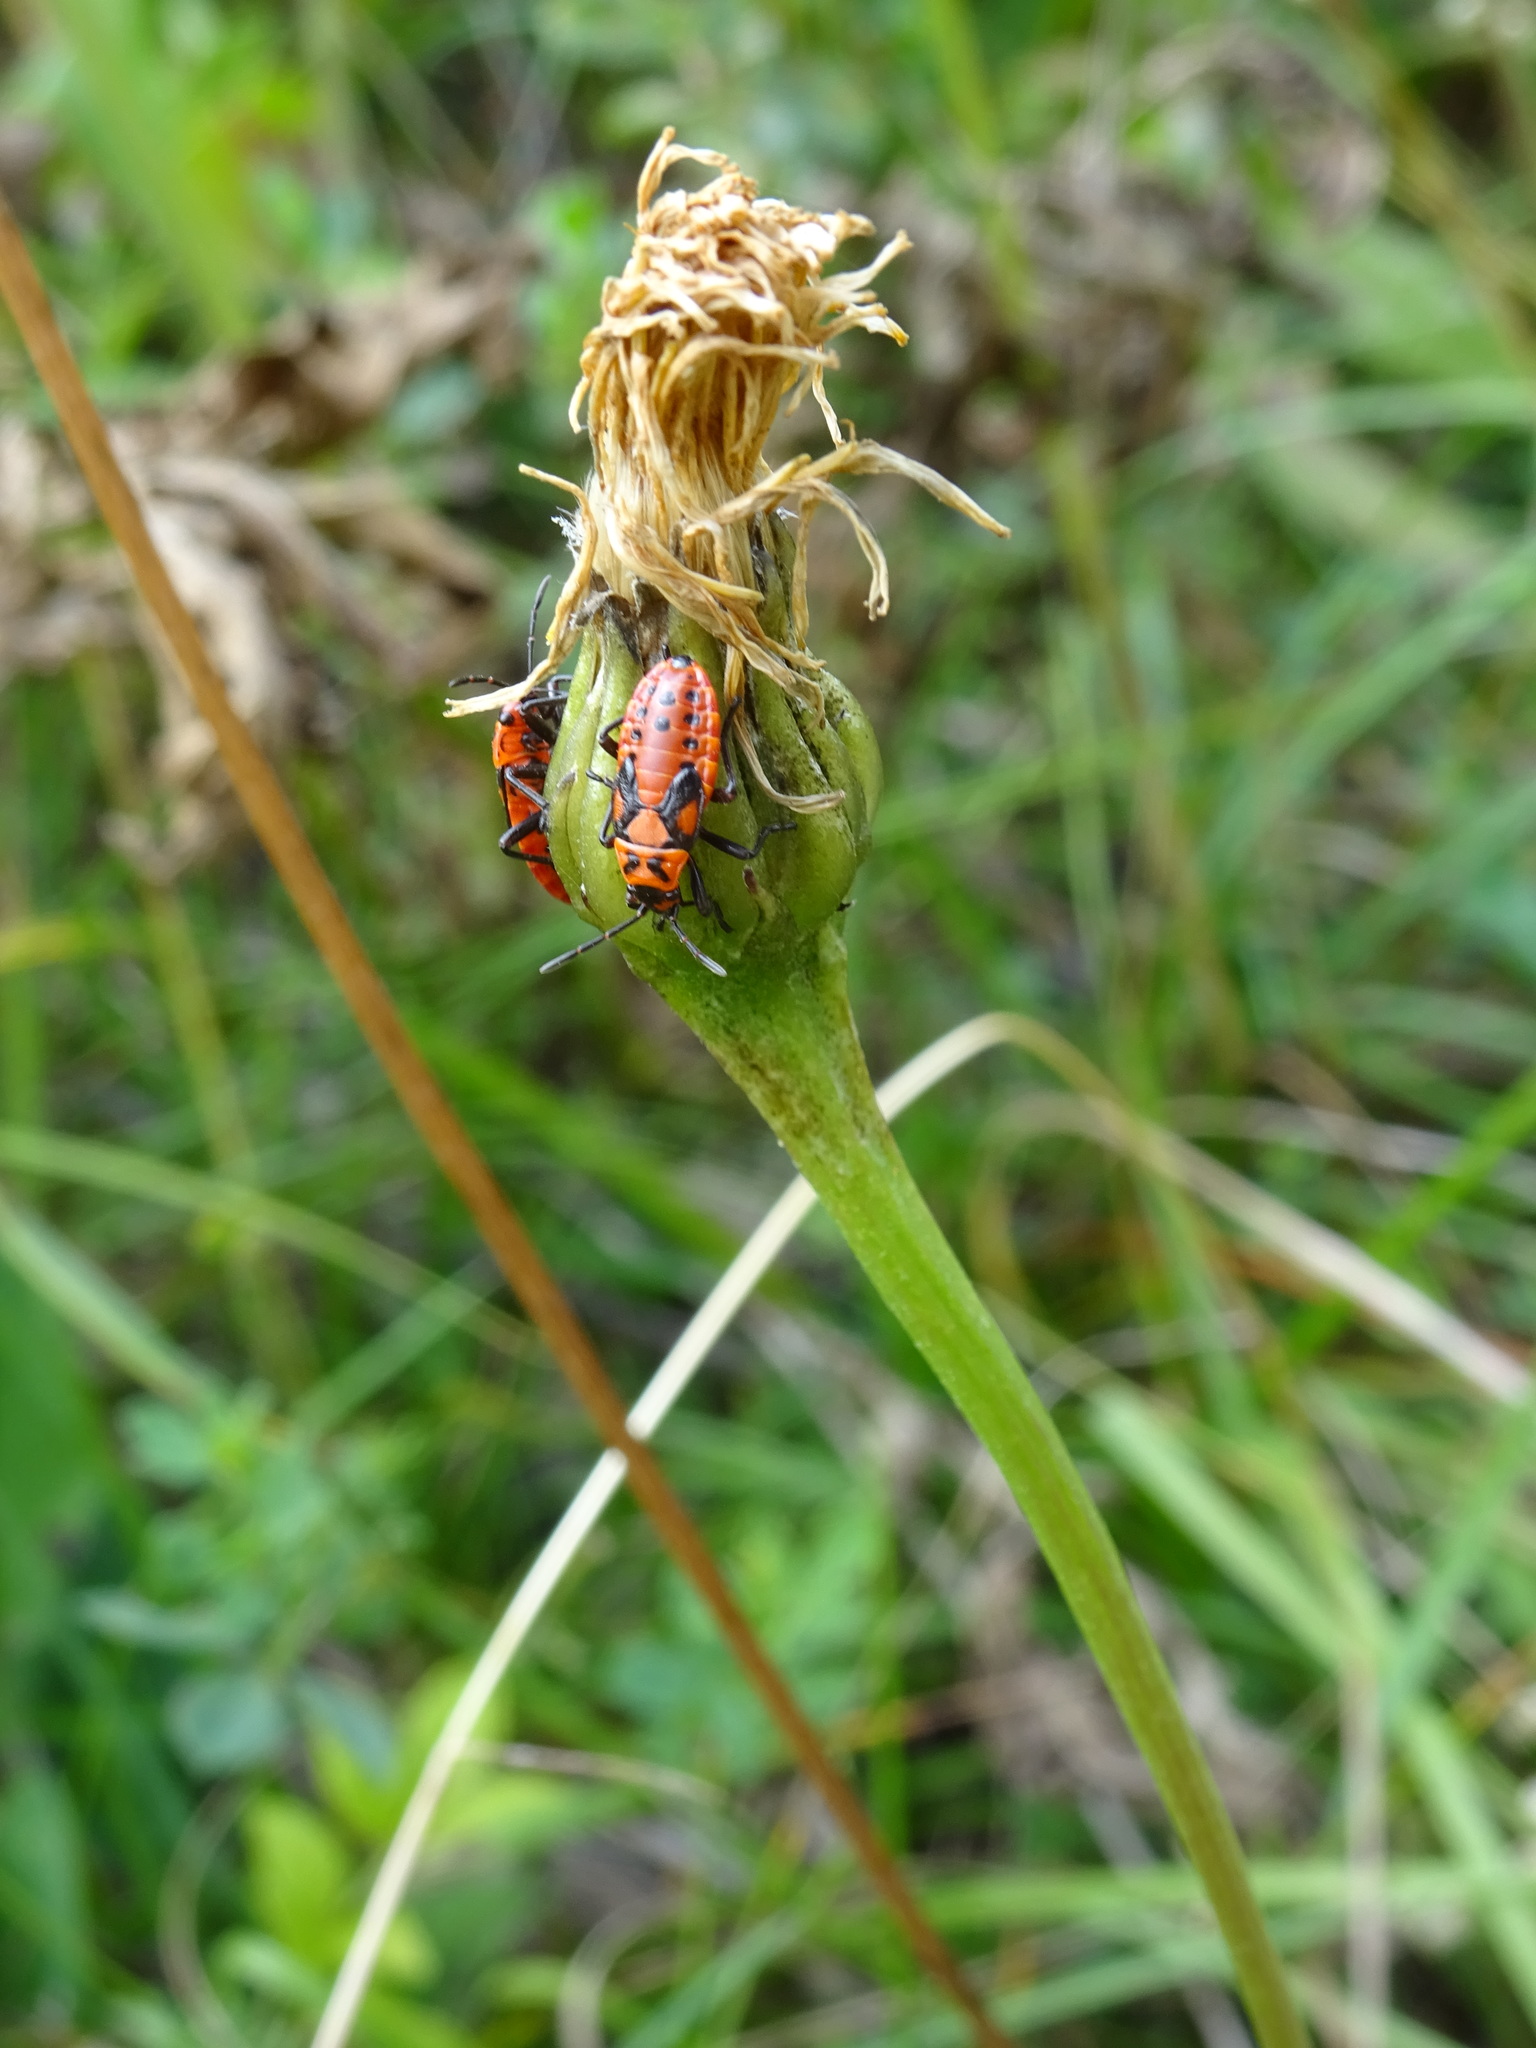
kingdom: Animalia
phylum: Arthropoda
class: Insecta
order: Hemiptera
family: Lygaeidae
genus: Spilostethus
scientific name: Spilostethus saxatilis
